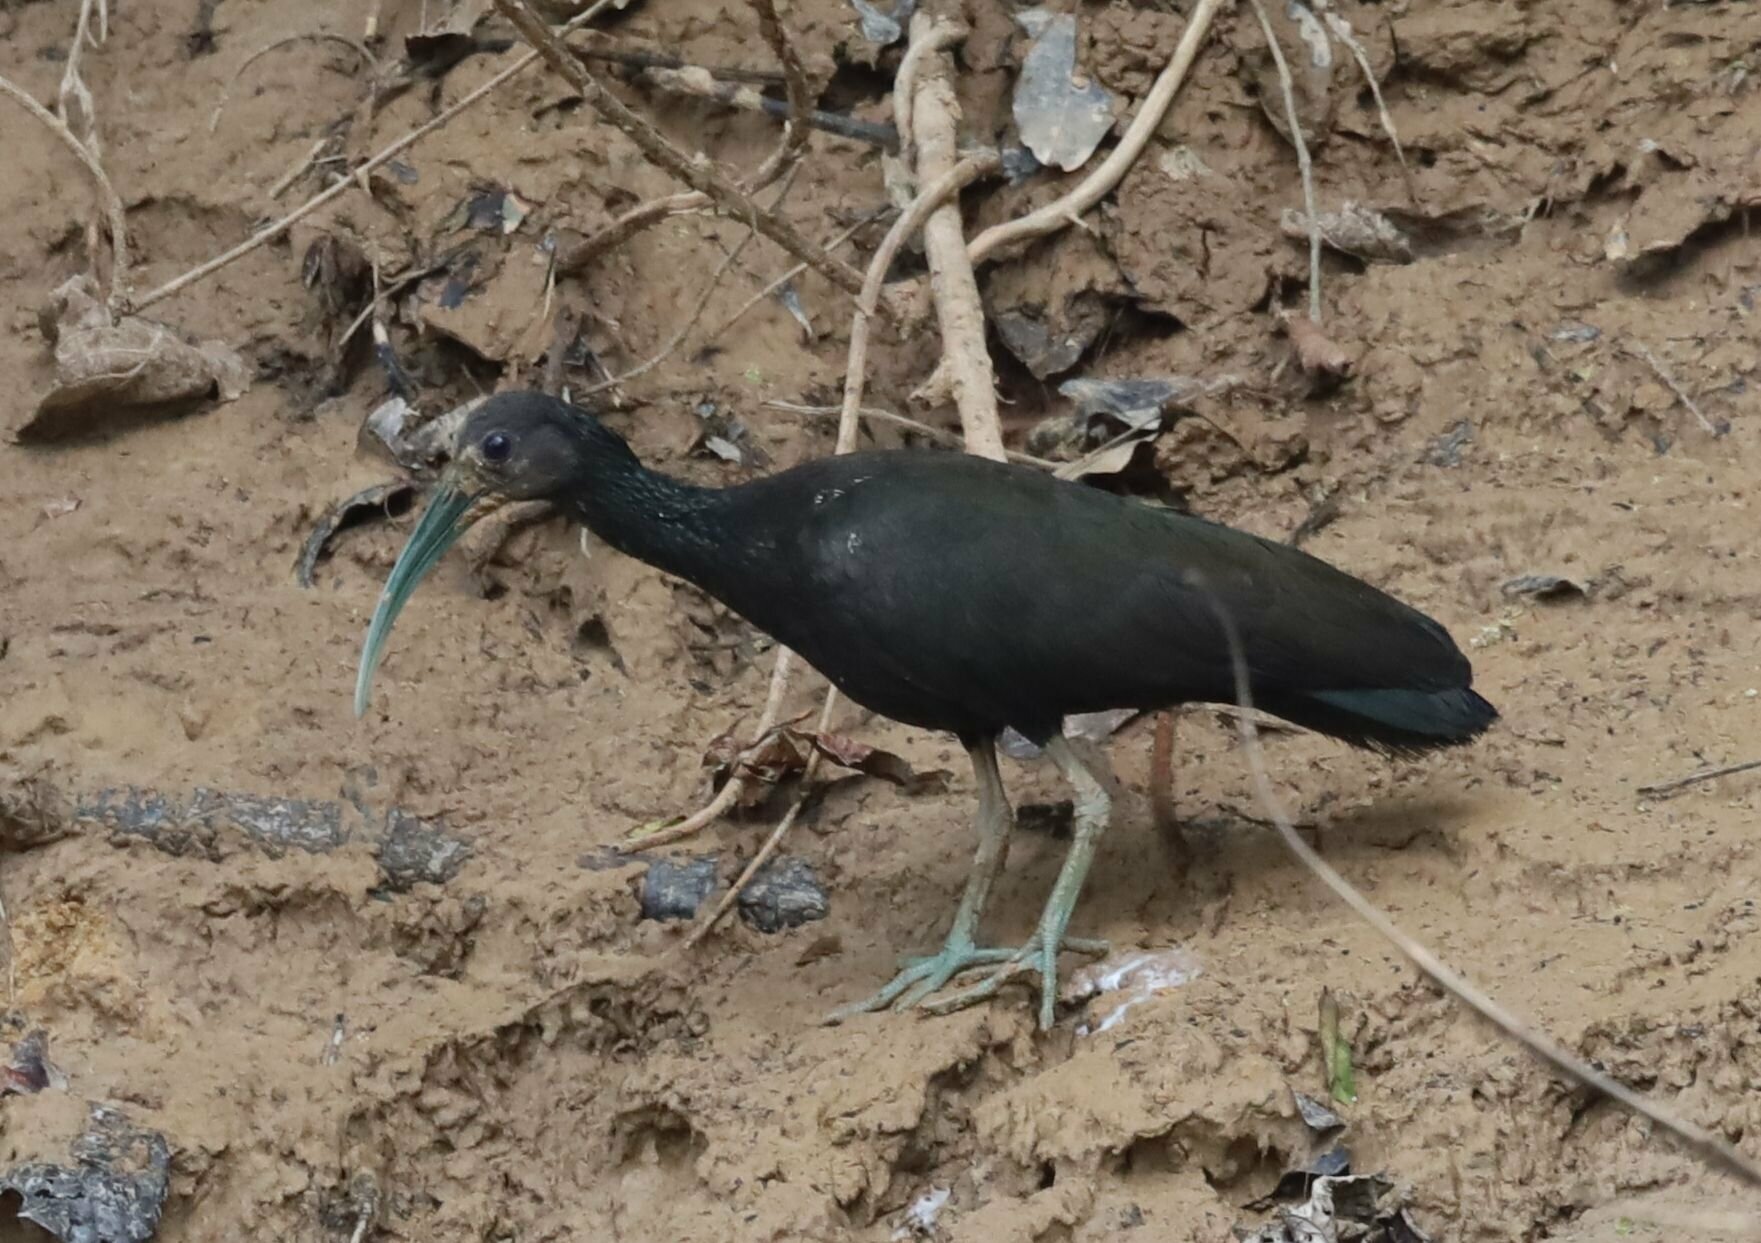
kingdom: Animalia
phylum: Chordata
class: Aves
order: Pelecaniformes
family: Threskiornithidae
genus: Mesembrinibis
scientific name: Mesembrinibis cayennensis
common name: Green ibis
